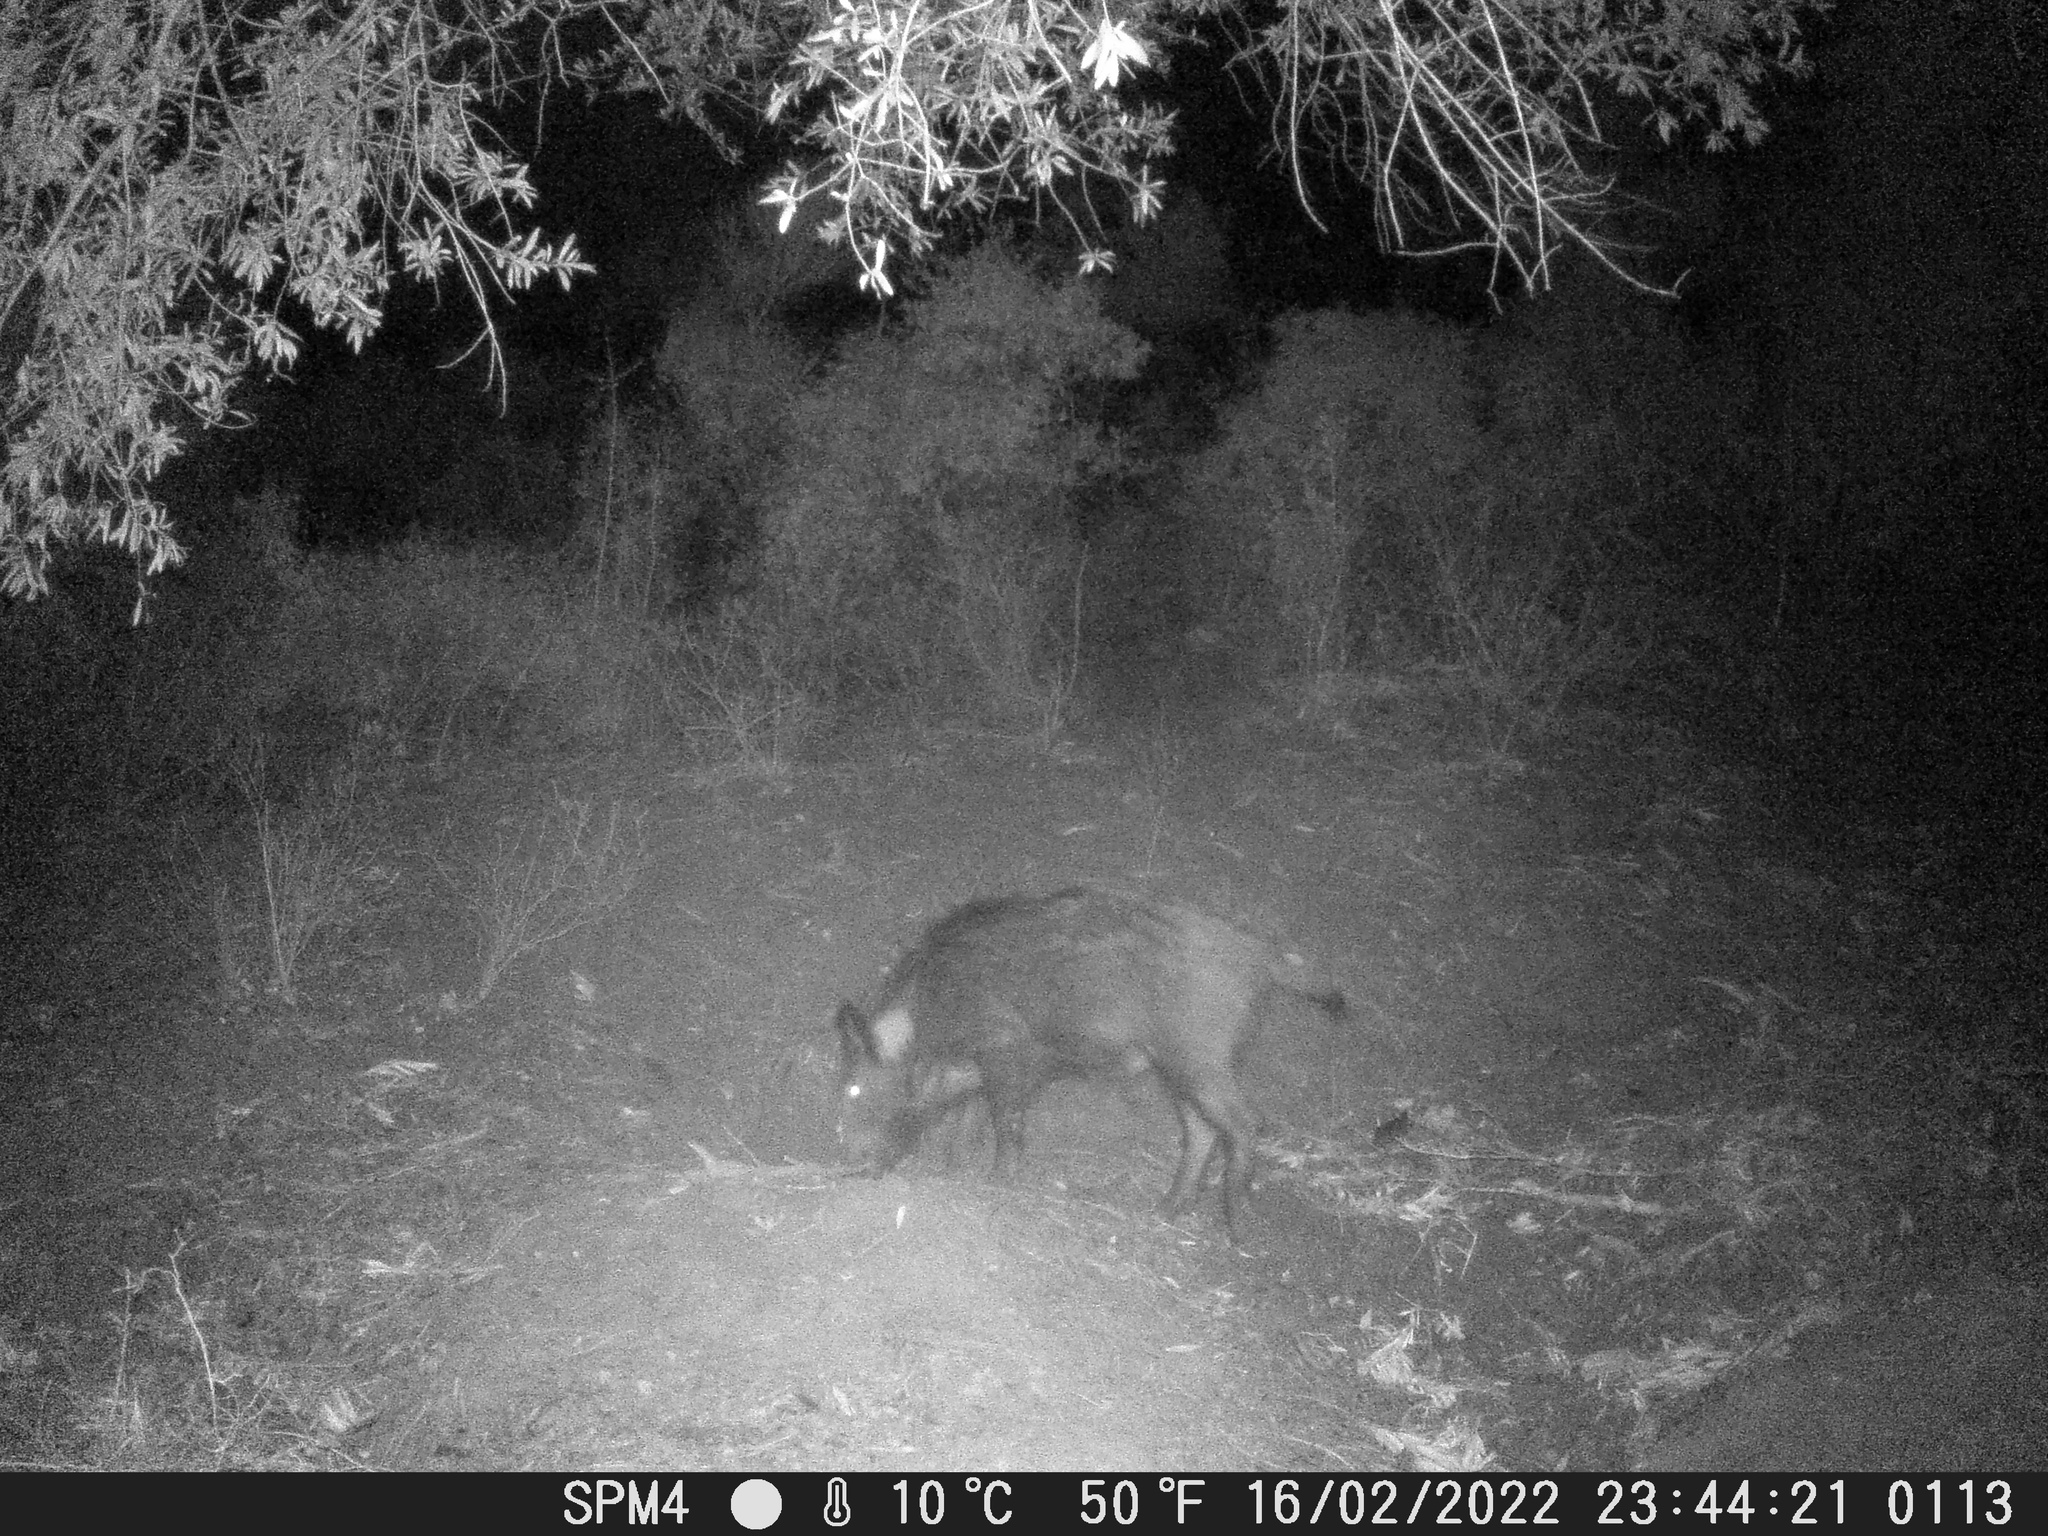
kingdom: Animalia
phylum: Chordata
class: Mammalia
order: Artiodactyla
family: Suidae
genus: Sus
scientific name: Sus scrofa
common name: Wild boar
